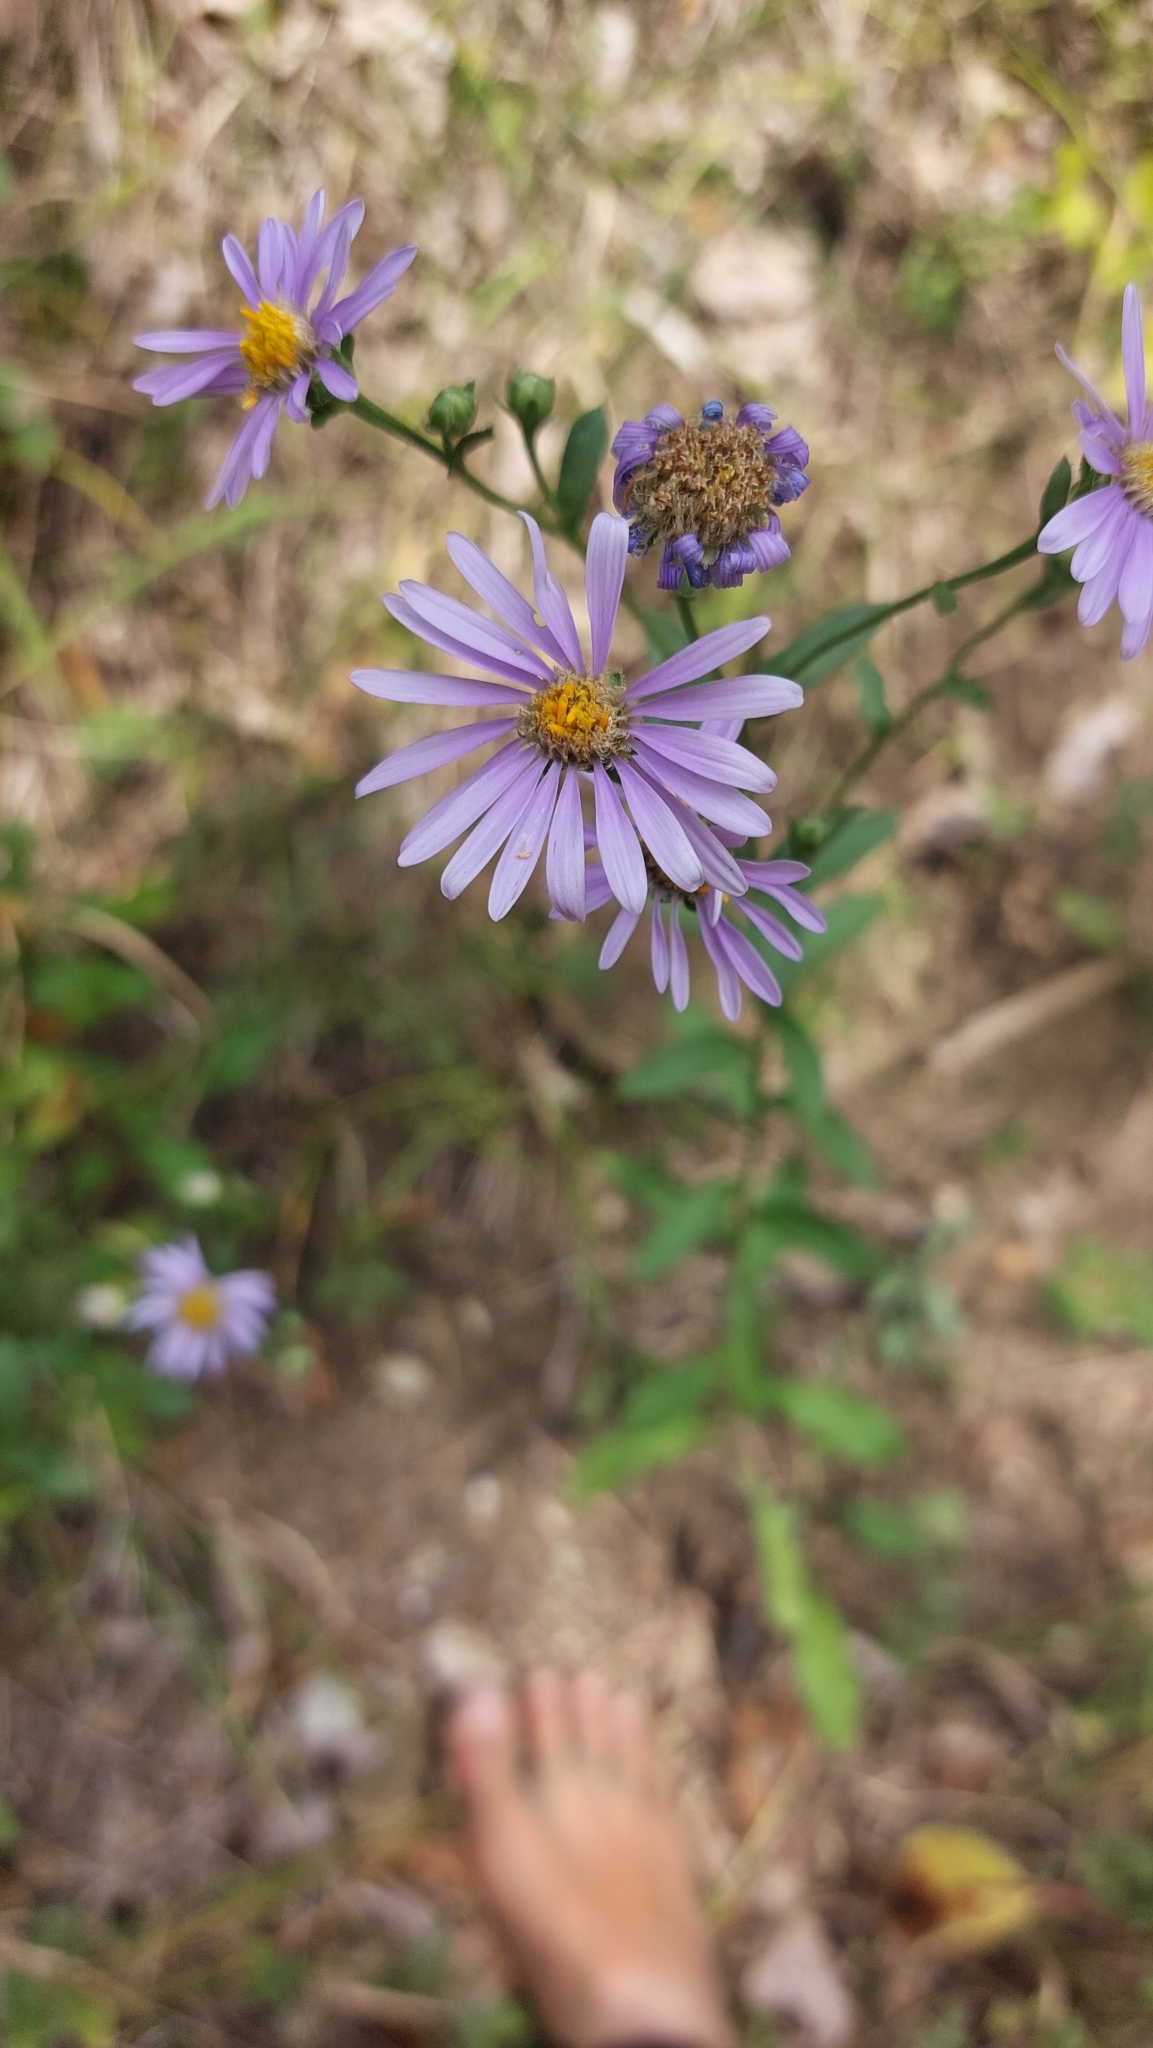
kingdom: Plantae
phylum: Tracheophyta
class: Magnoliopsida
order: Asterales
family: Asteraceae
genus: Aster
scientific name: Aster amellus
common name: European michaelmas daisy
